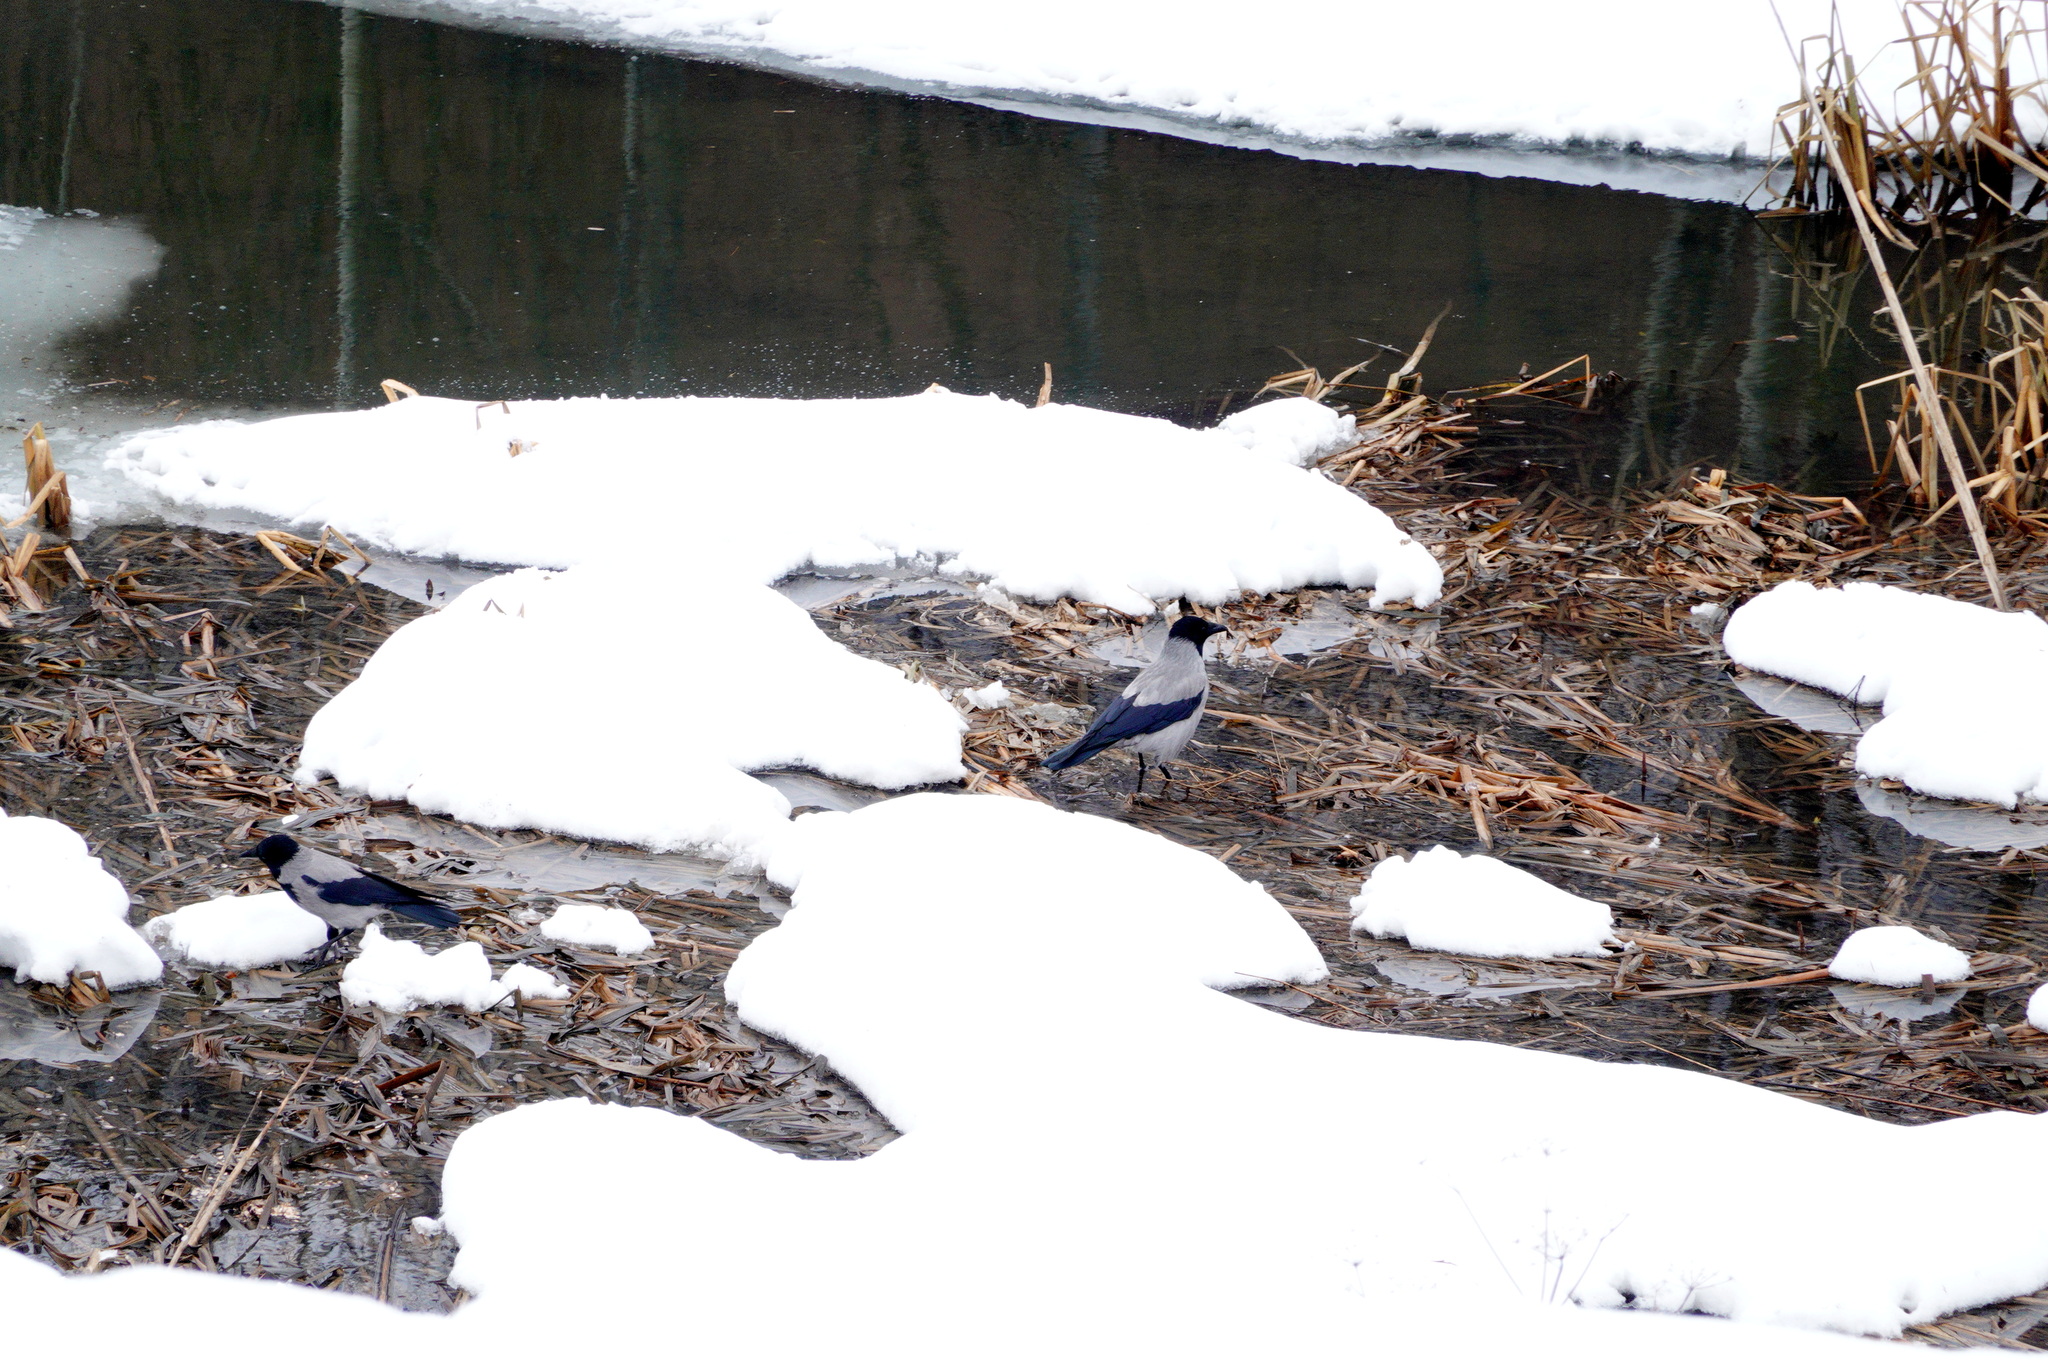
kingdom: Animalia
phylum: Chordata
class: Aves
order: Passeriformes
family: Corvidae
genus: Corvus
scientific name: Corvus cornix
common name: Hooded crow
